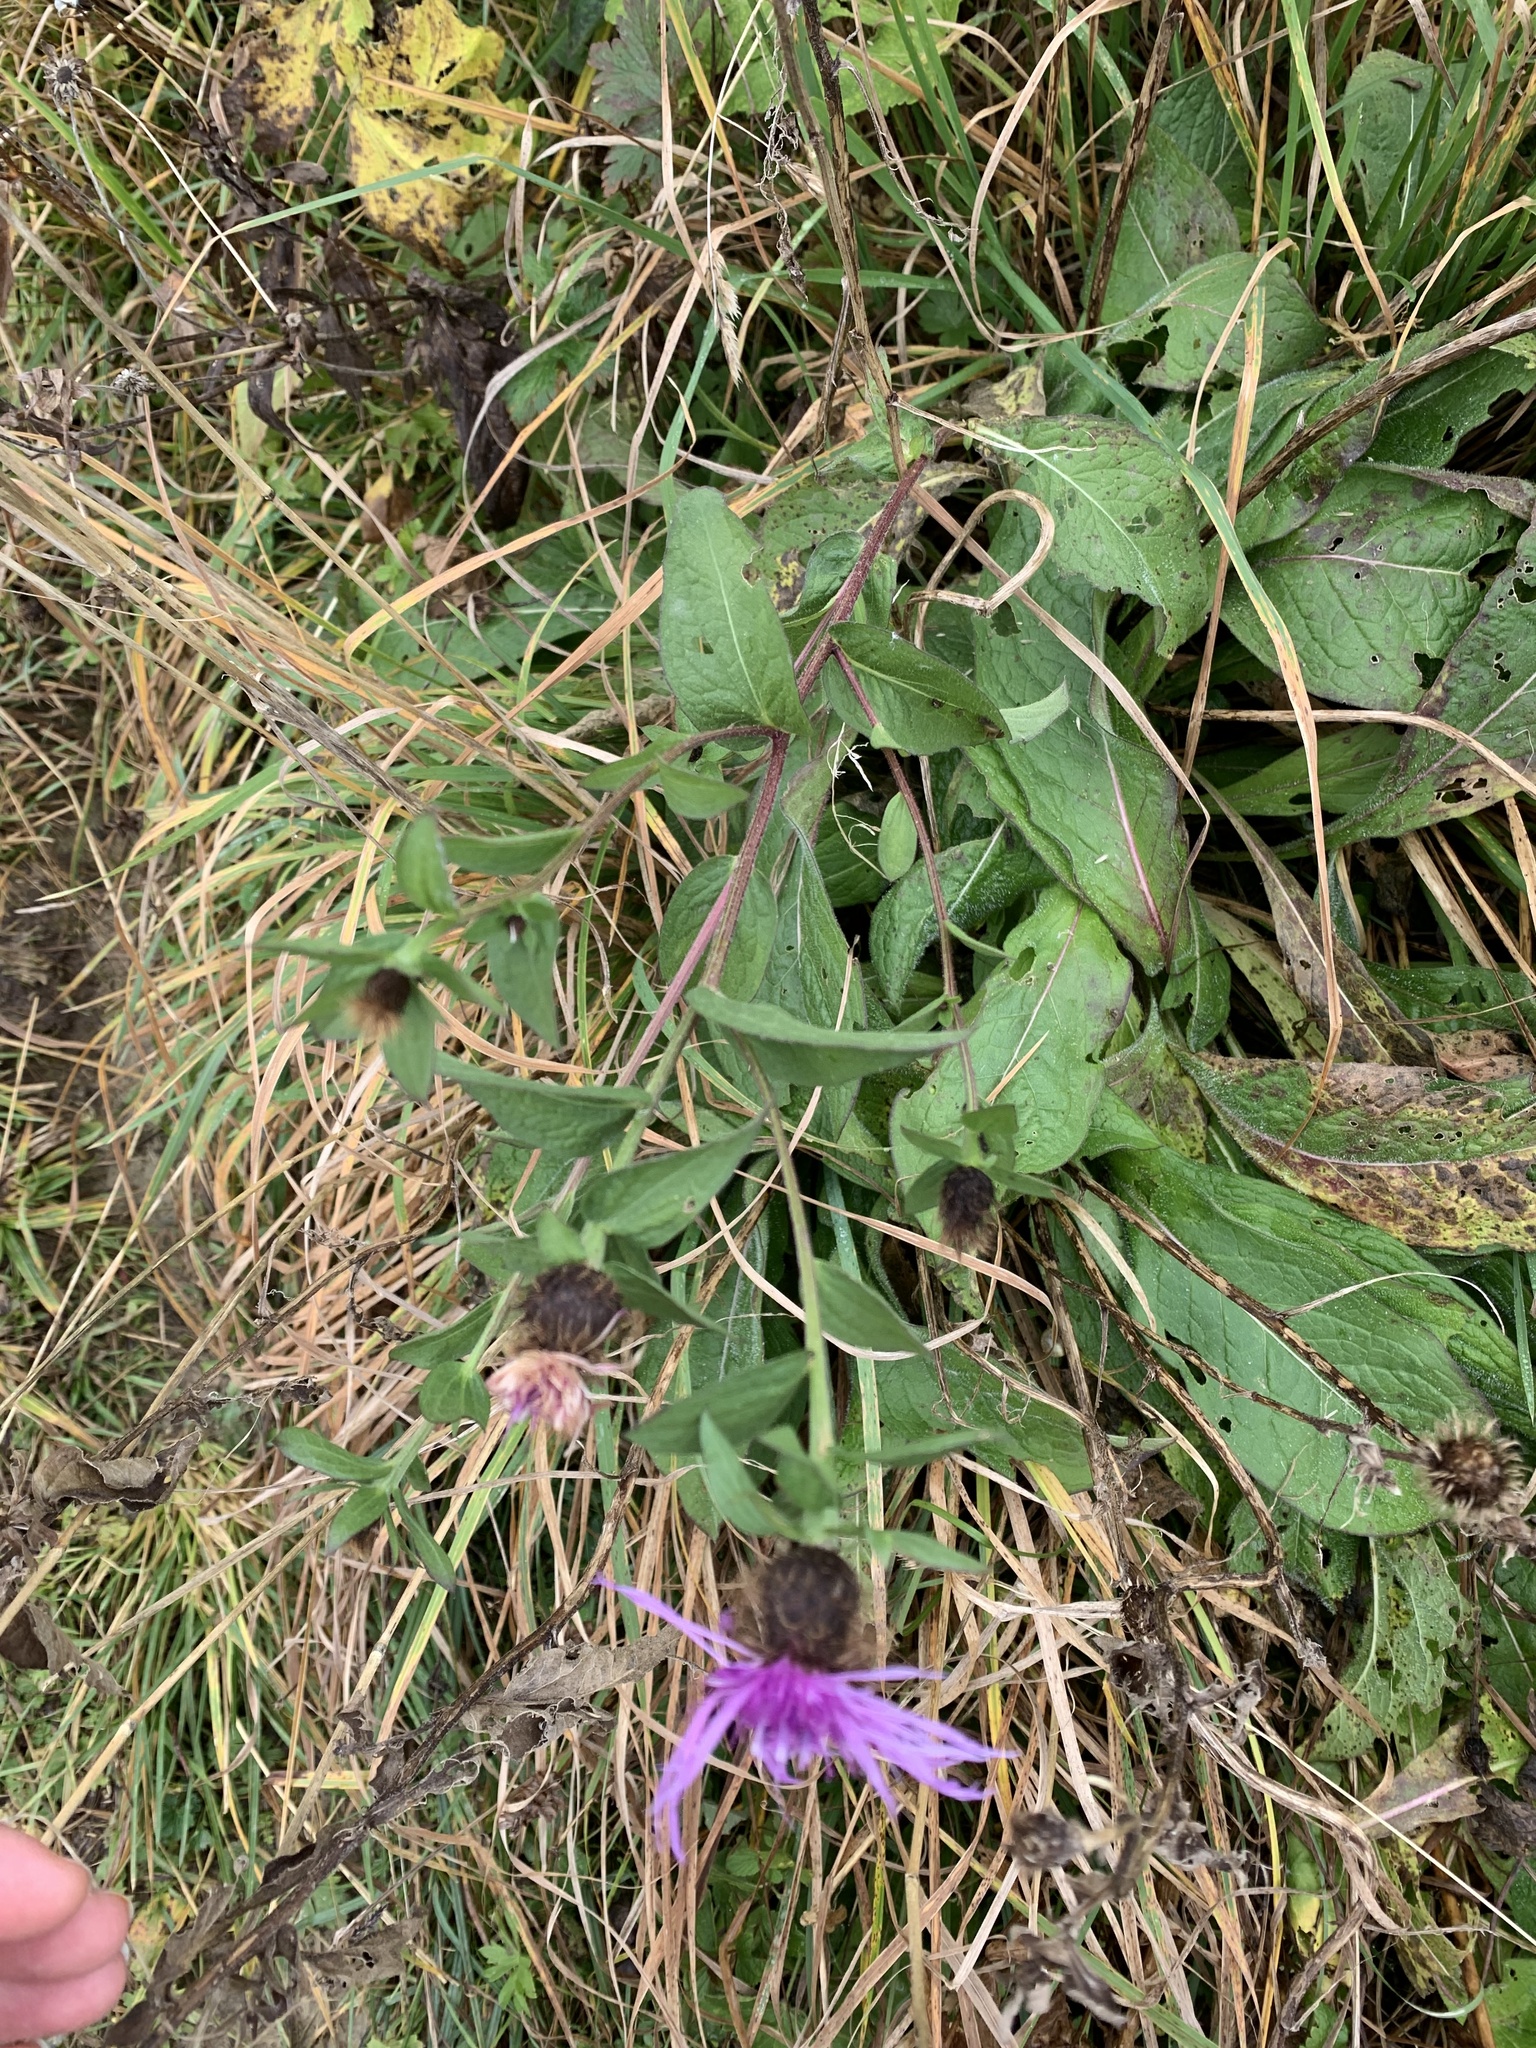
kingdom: Plantae
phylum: Tracheophyta
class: Magnoliopsida
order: Asterales
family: Asteraceae
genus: Centaurea
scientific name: Centaurea phrygia
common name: Wig knapweed
